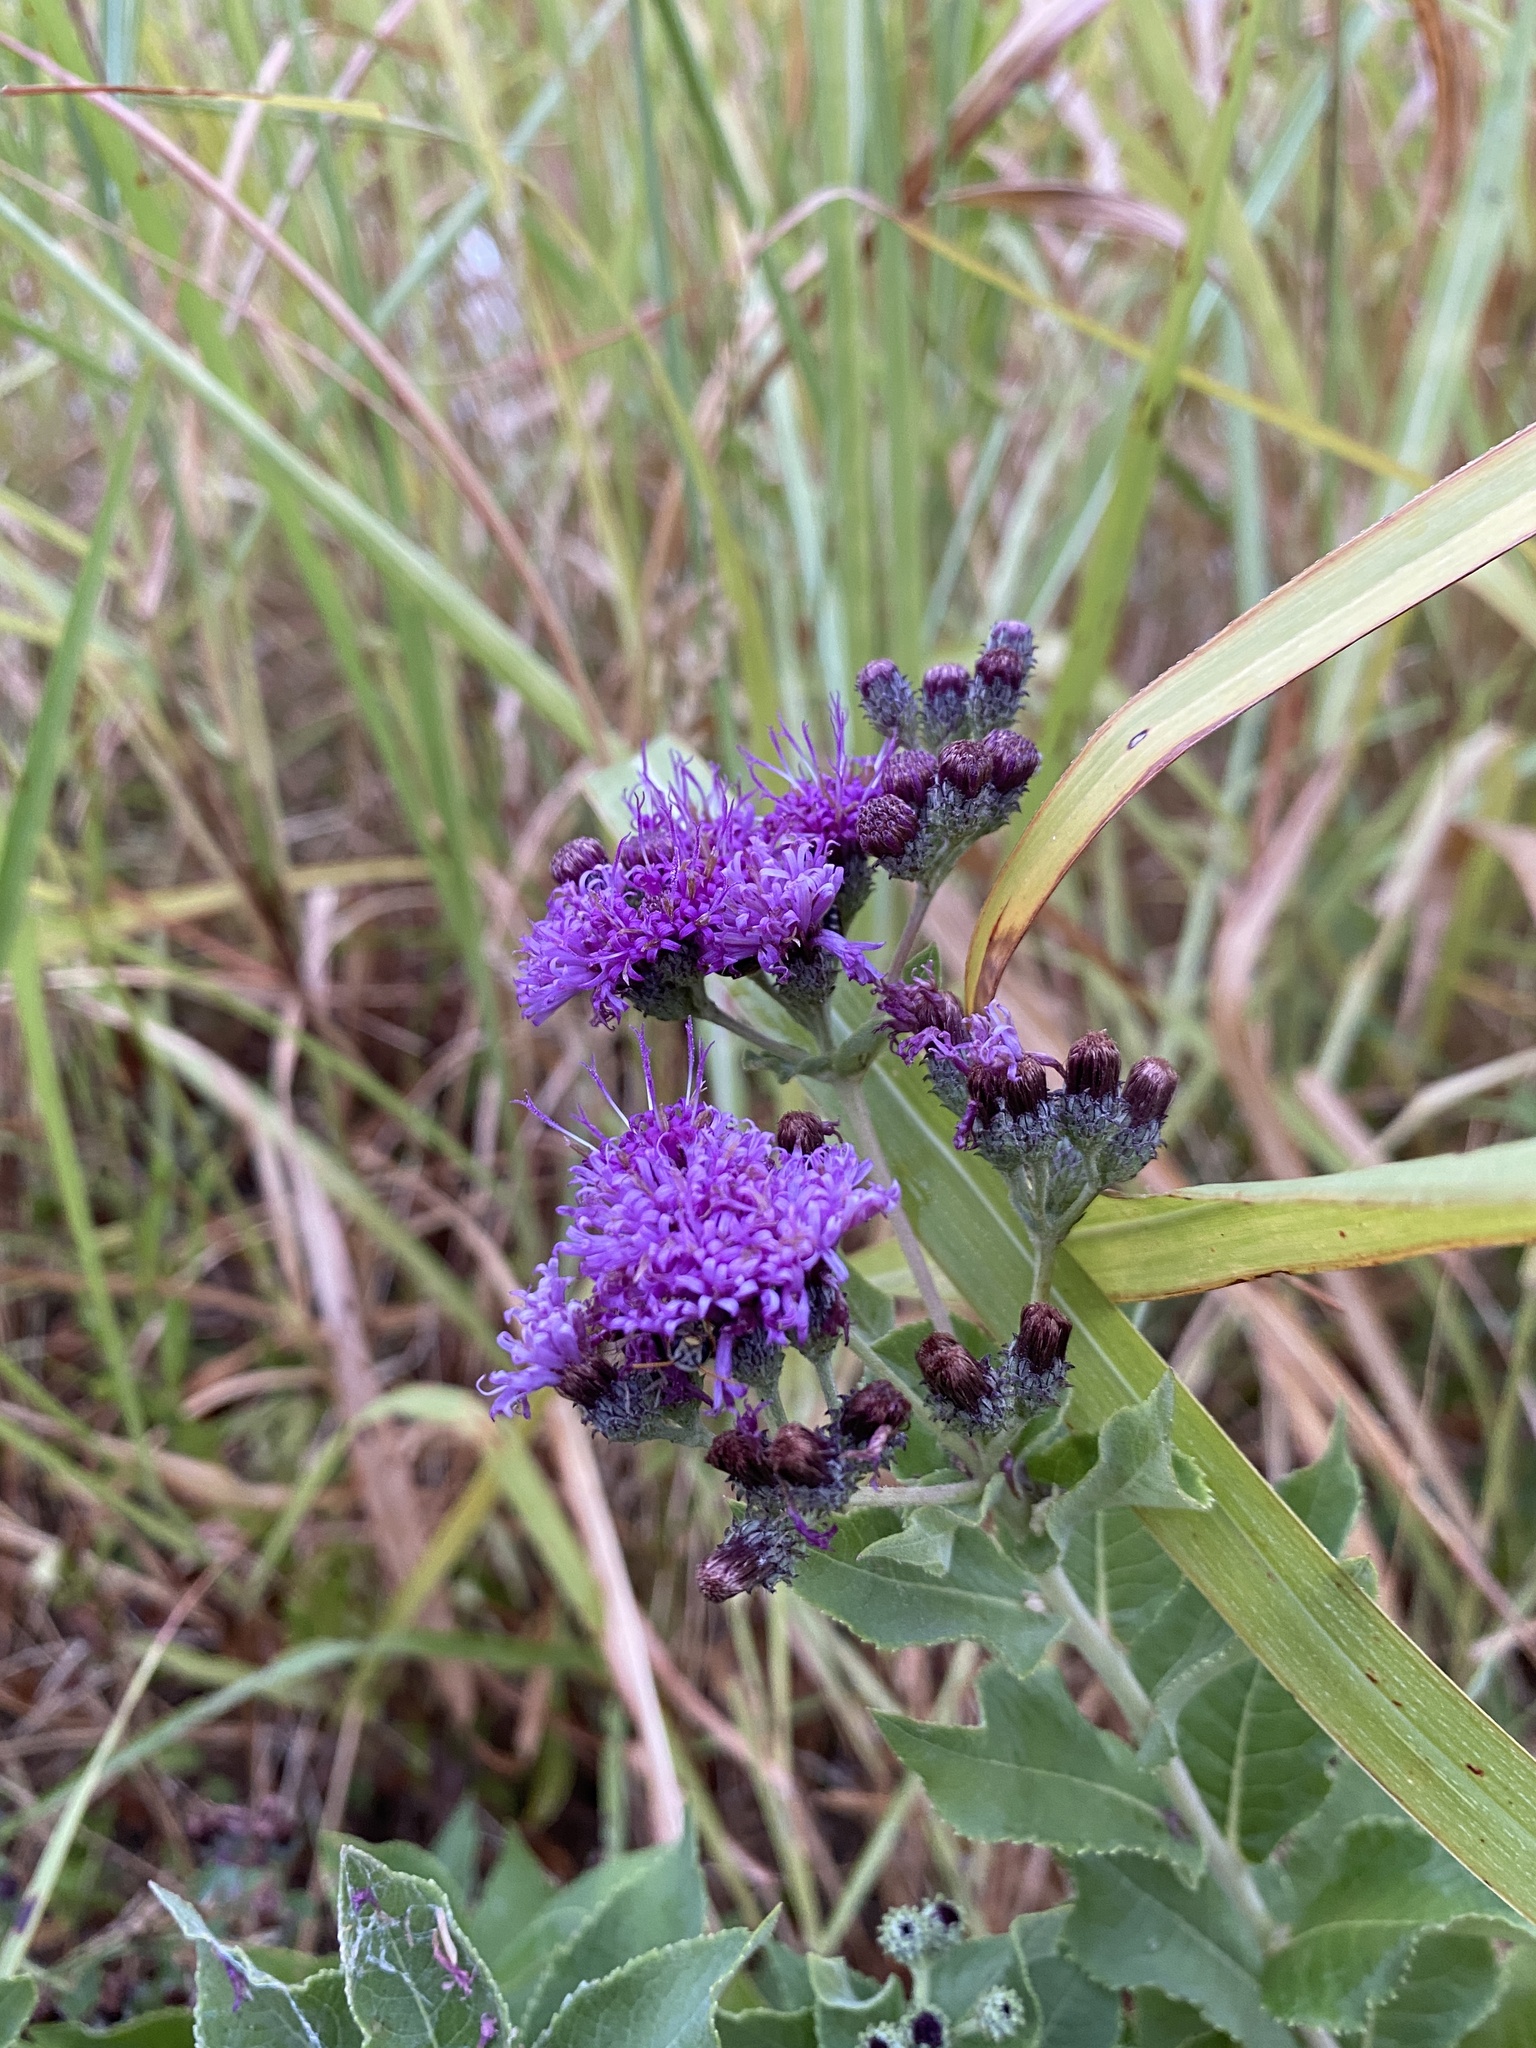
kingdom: Plantae
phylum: Tracheophyta
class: Magnoliopsida
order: Asterales
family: Asteraceae
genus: Vernonia
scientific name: Vernonia baldwinii
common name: Western ironweed
